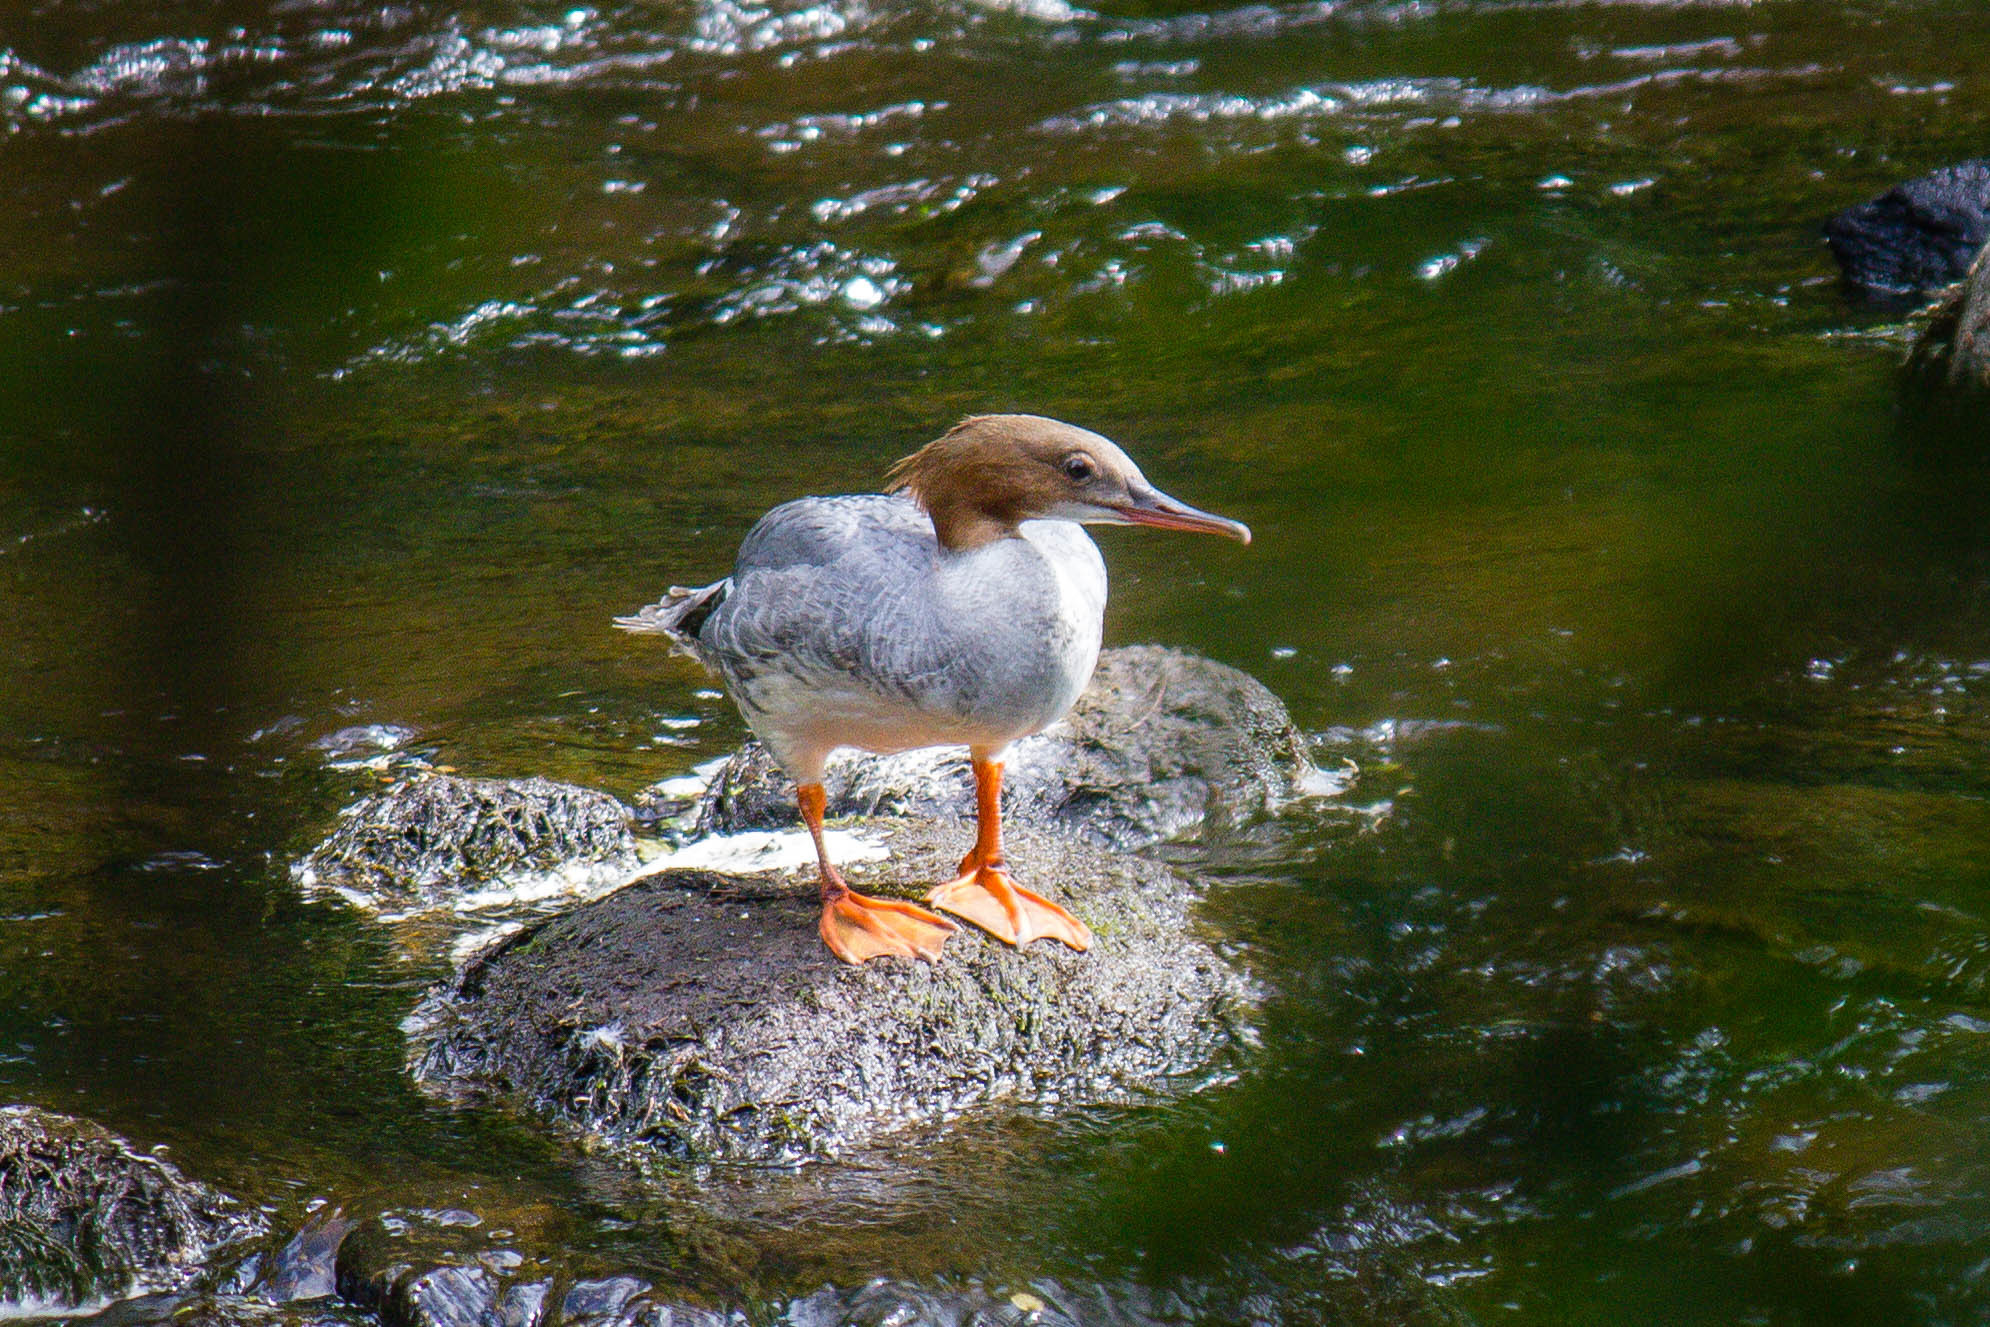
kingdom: Animalia
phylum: Chordata
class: Aves
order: Anseriformes
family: Anatidae
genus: Mergus
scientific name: Mergus merganser
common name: Common merganser
